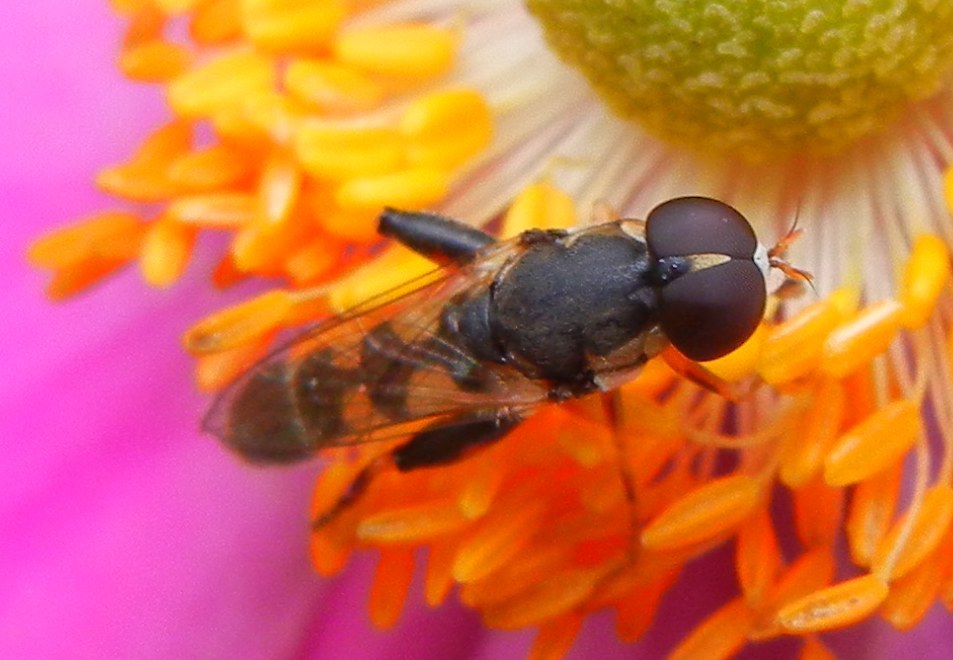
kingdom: Animalia
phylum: Arthropoda
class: Insecta
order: Diptera
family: Syrphidae
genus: Syritta
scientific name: Syritta pipiens
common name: Hover fly
